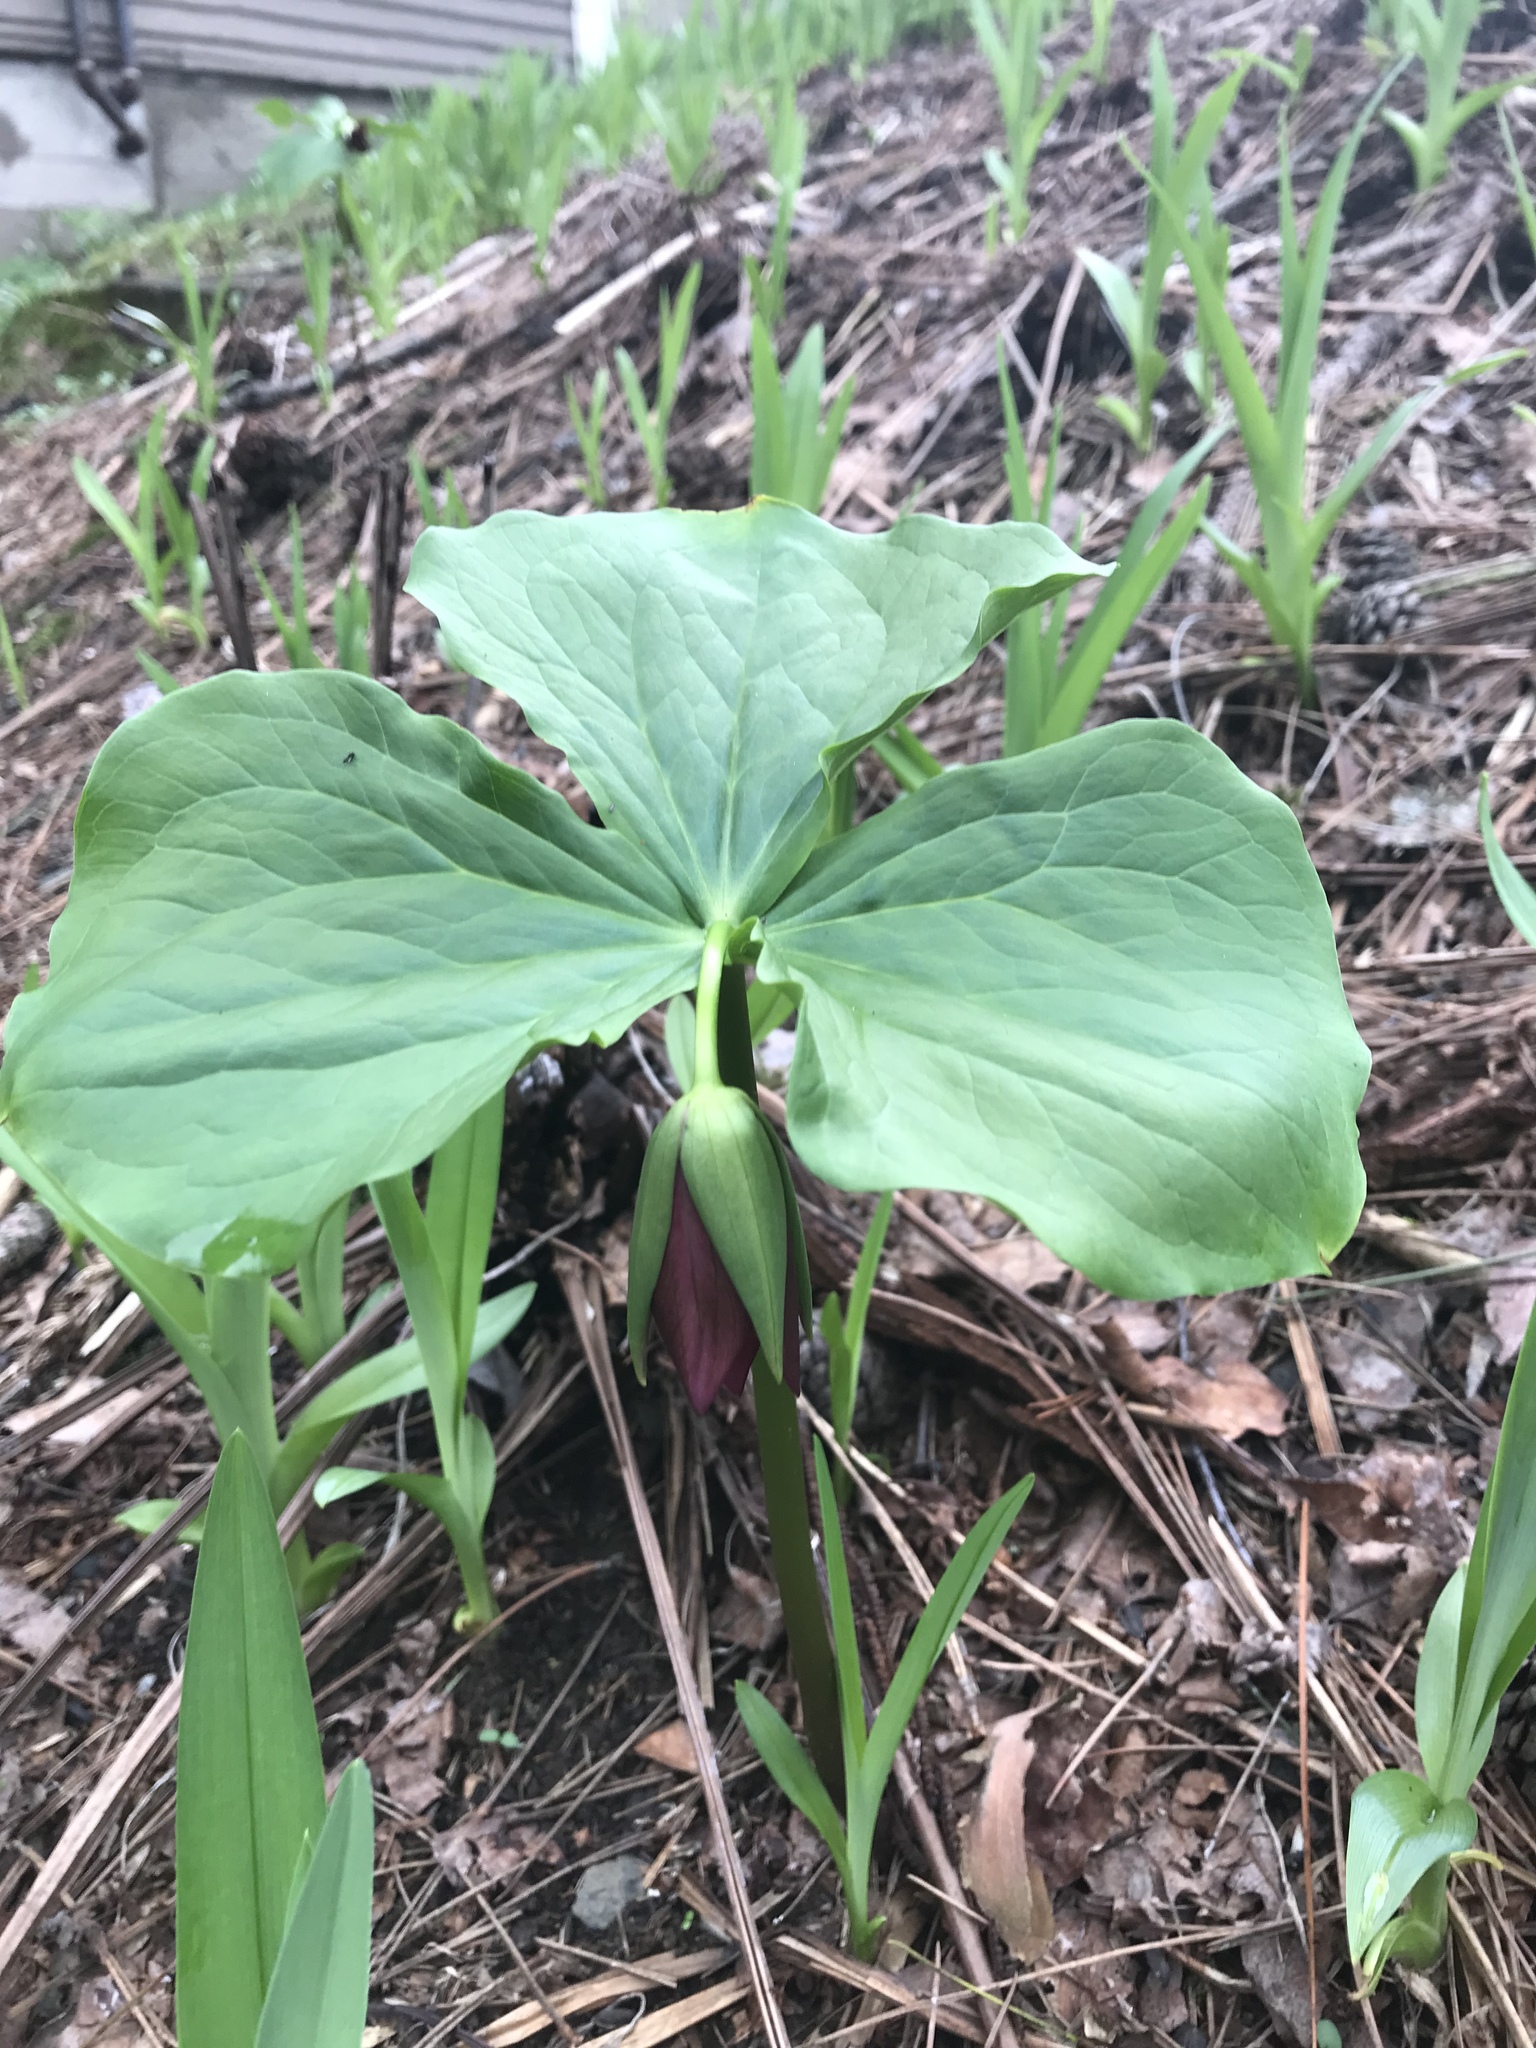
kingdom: Plantae
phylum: Tracheophyta
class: Liliopsida
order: Liliales
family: Melanthiaceae
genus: Trillium
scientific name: Trillium erectum
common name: Purple trillium
